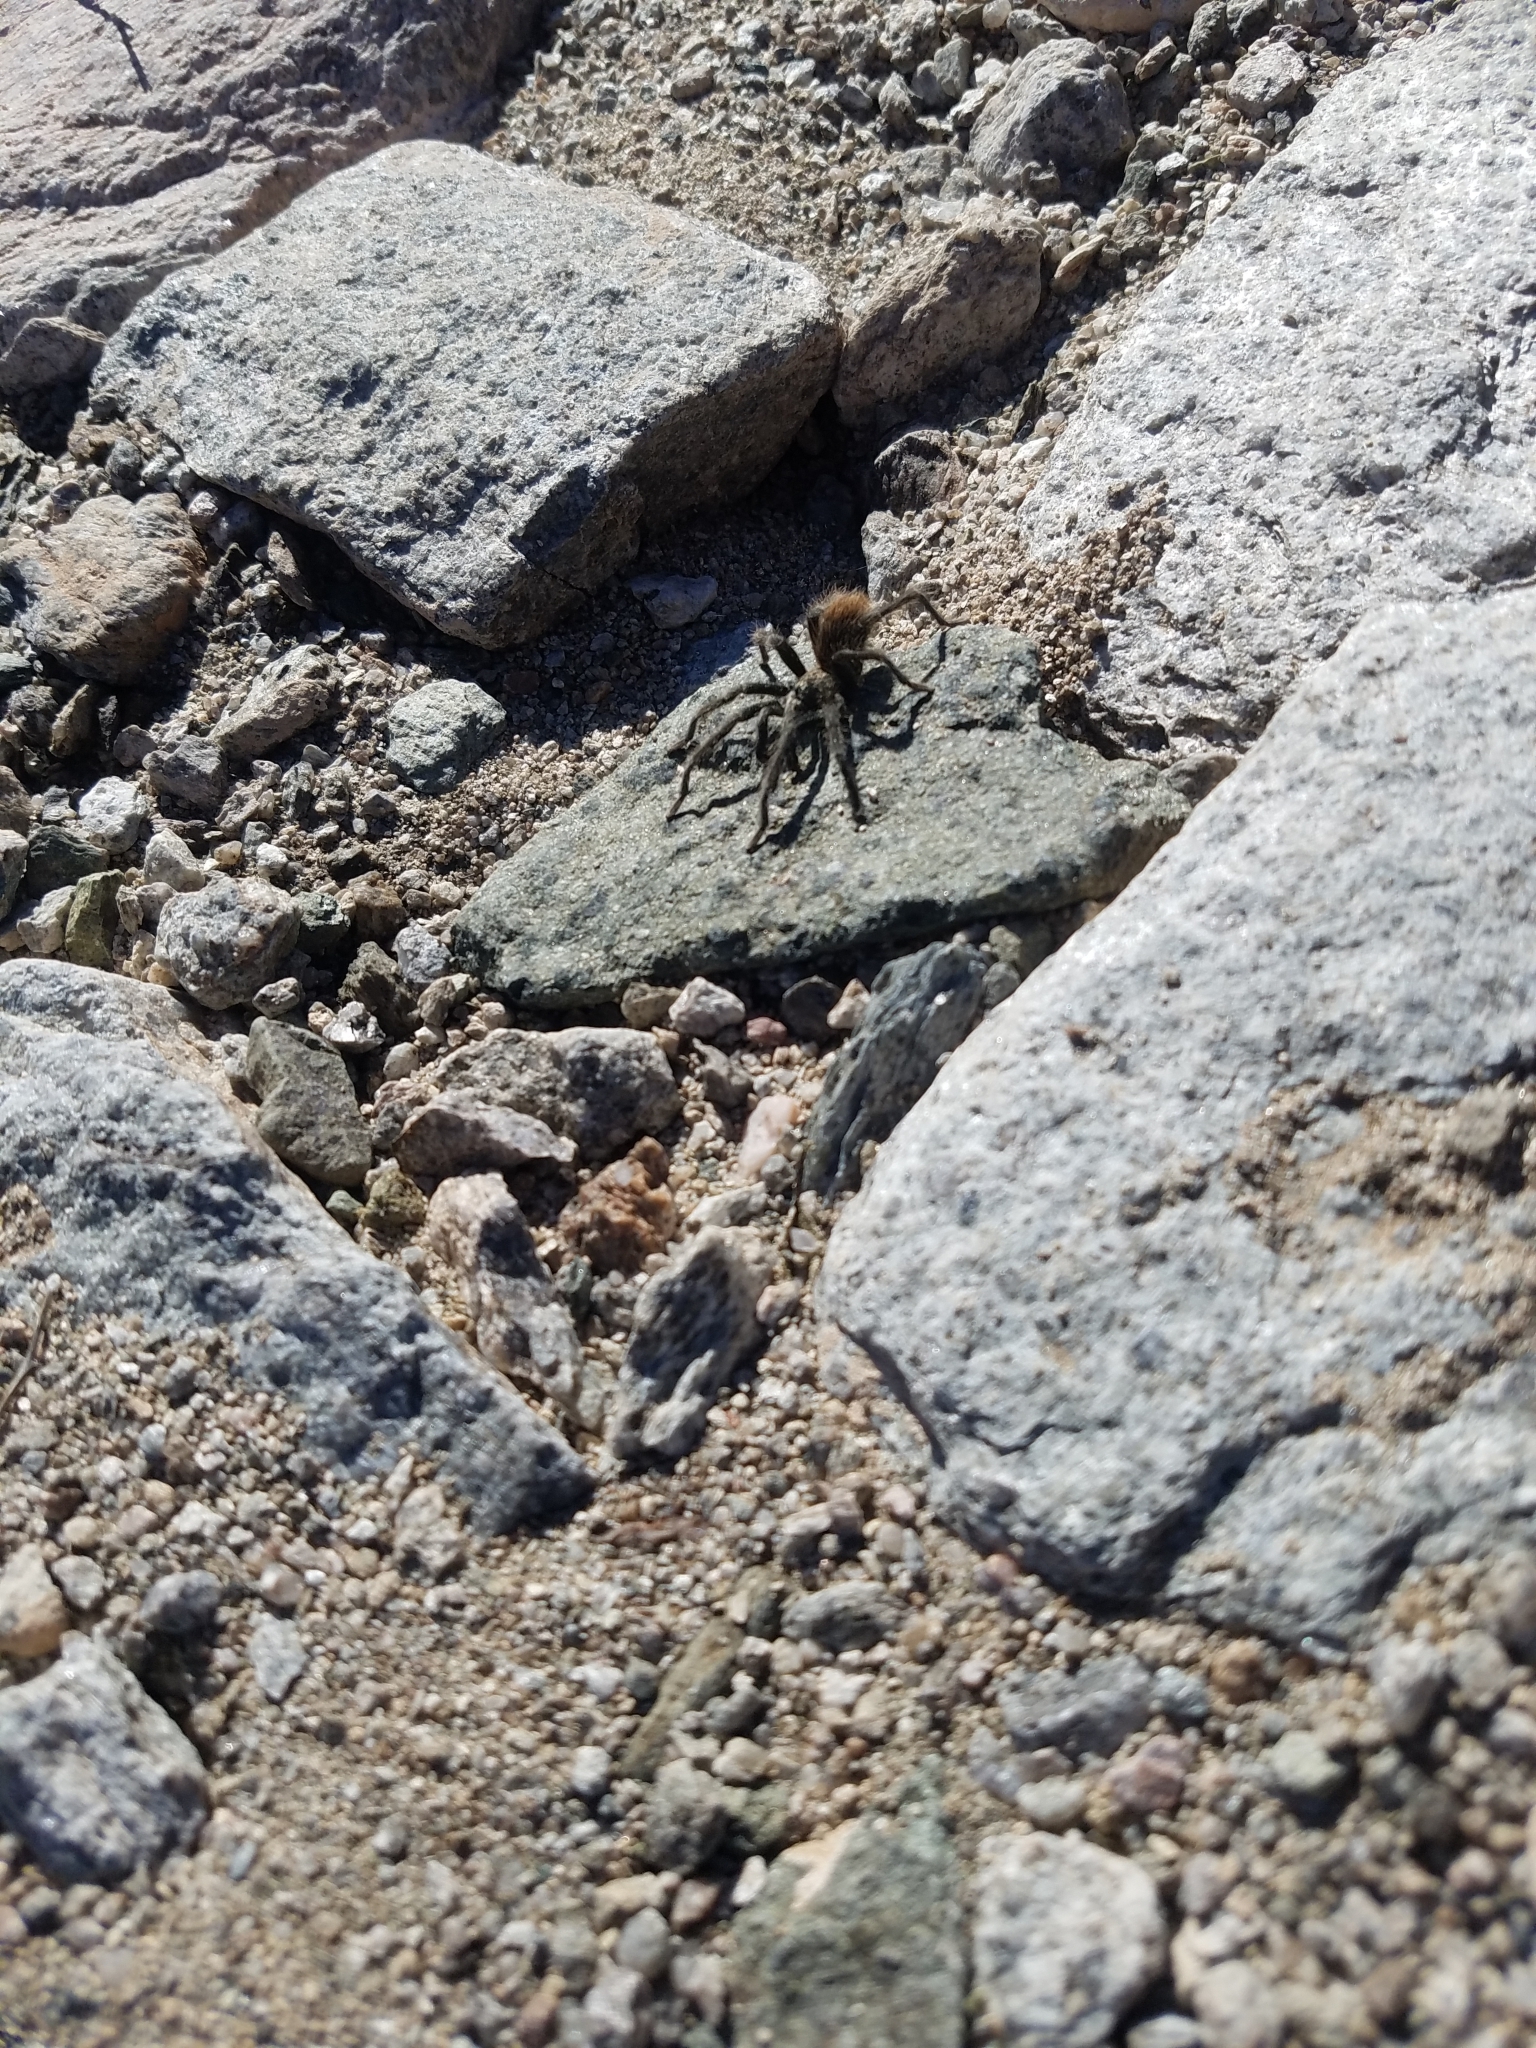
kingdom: Animalia
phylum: Arthropoda
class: Arachnida
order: Araneae
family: Theraphosidae
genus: Aphonopelma
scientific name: Aphonopelma paloma
